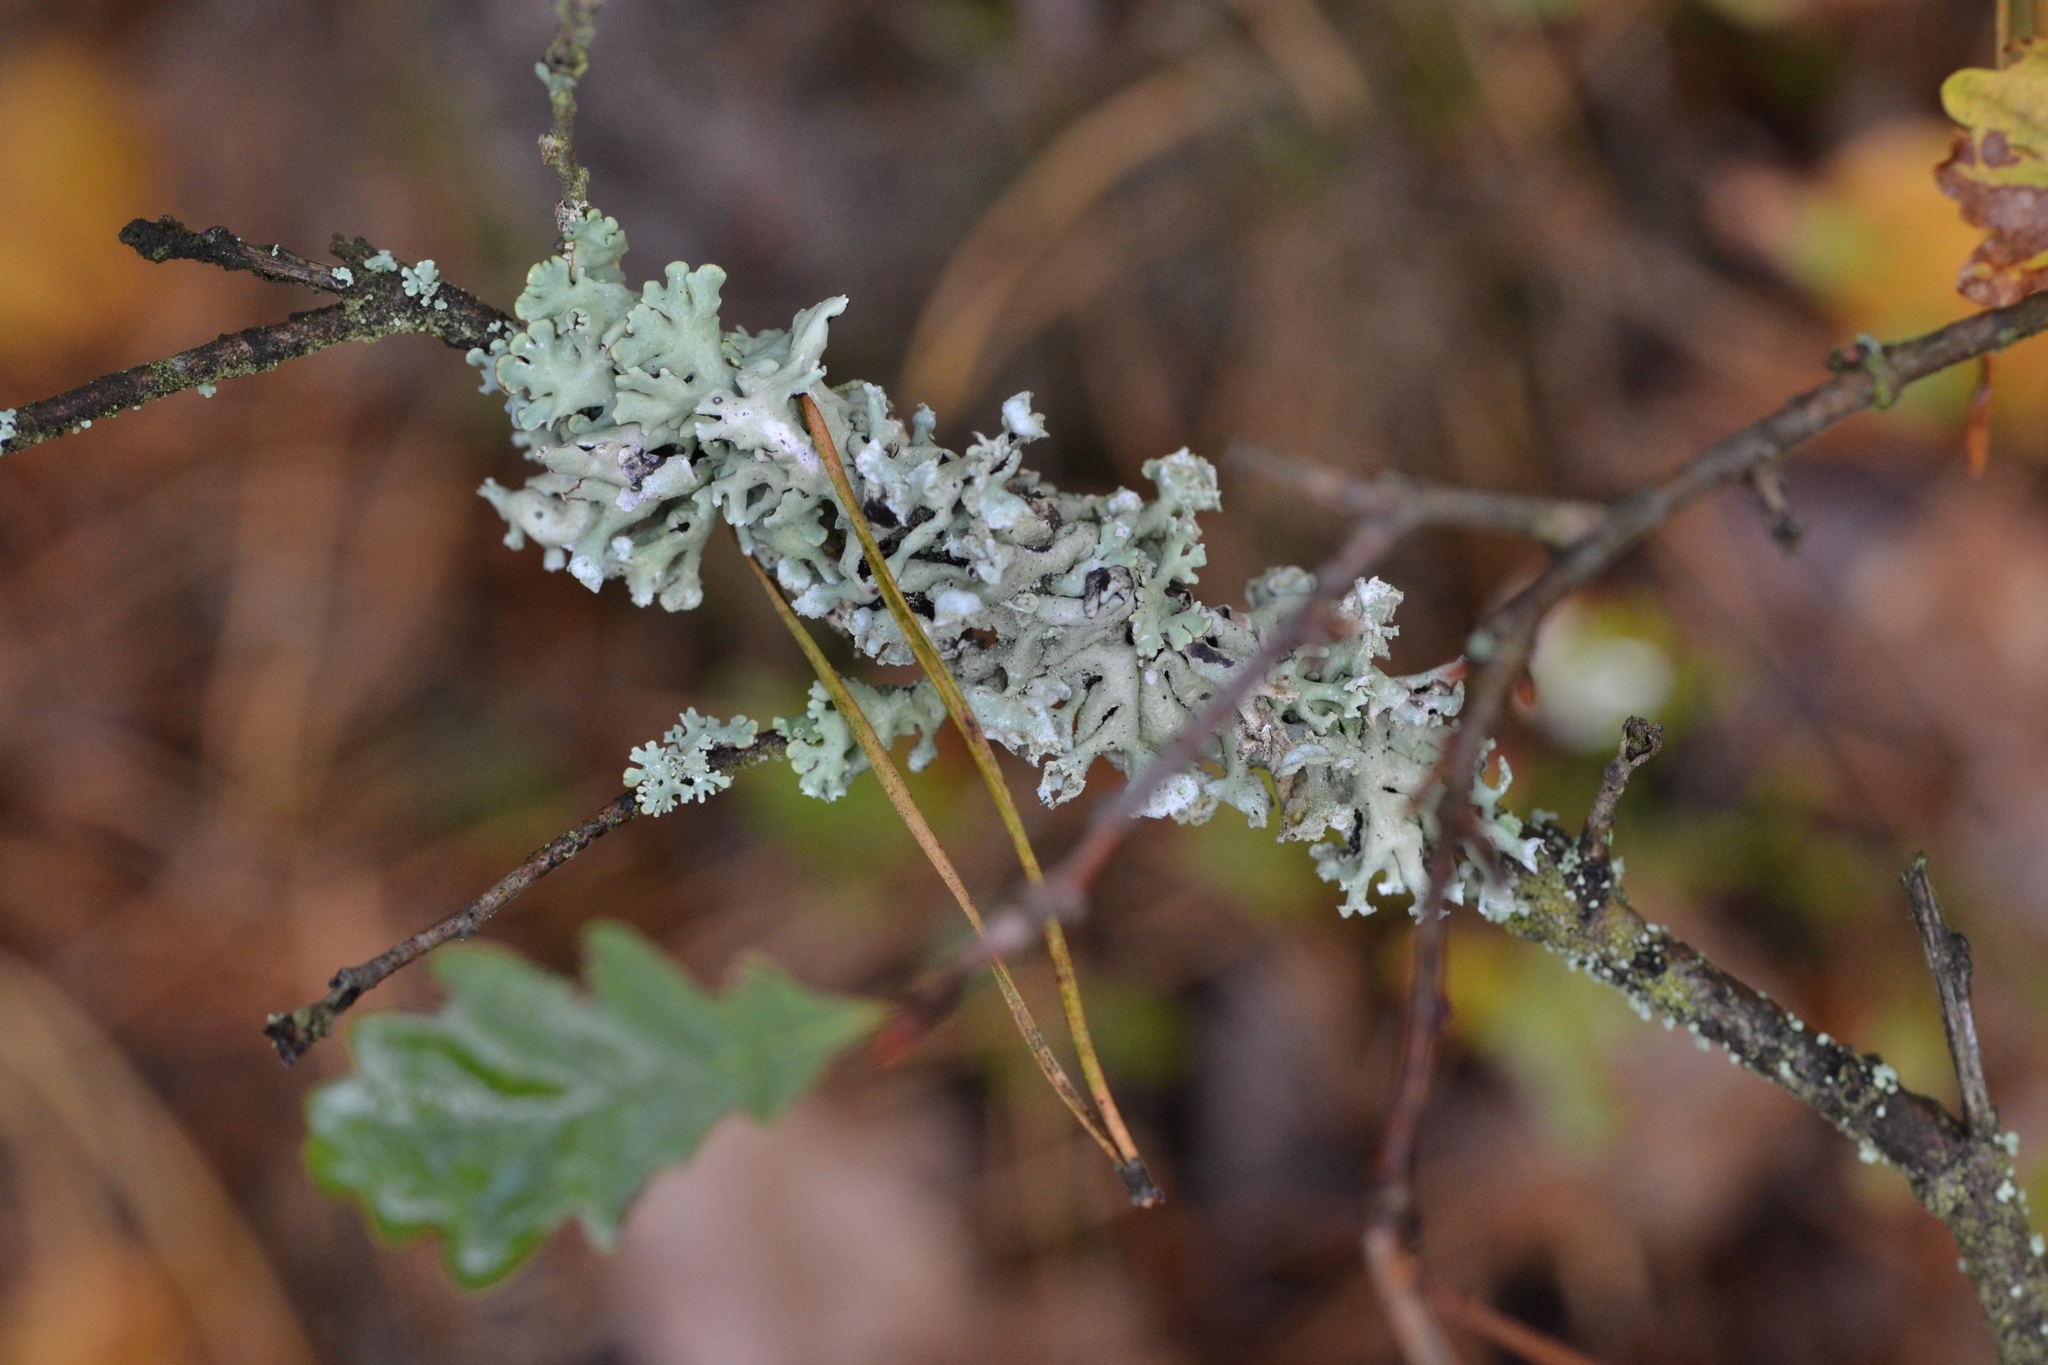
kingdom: Fungi
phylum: Ascomycota
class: Lecanoromycetes
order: Lecanorales
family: Parmeliaceae
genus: Hypogymnia
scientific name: Hypogymnia physodes
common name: Dark crottle
